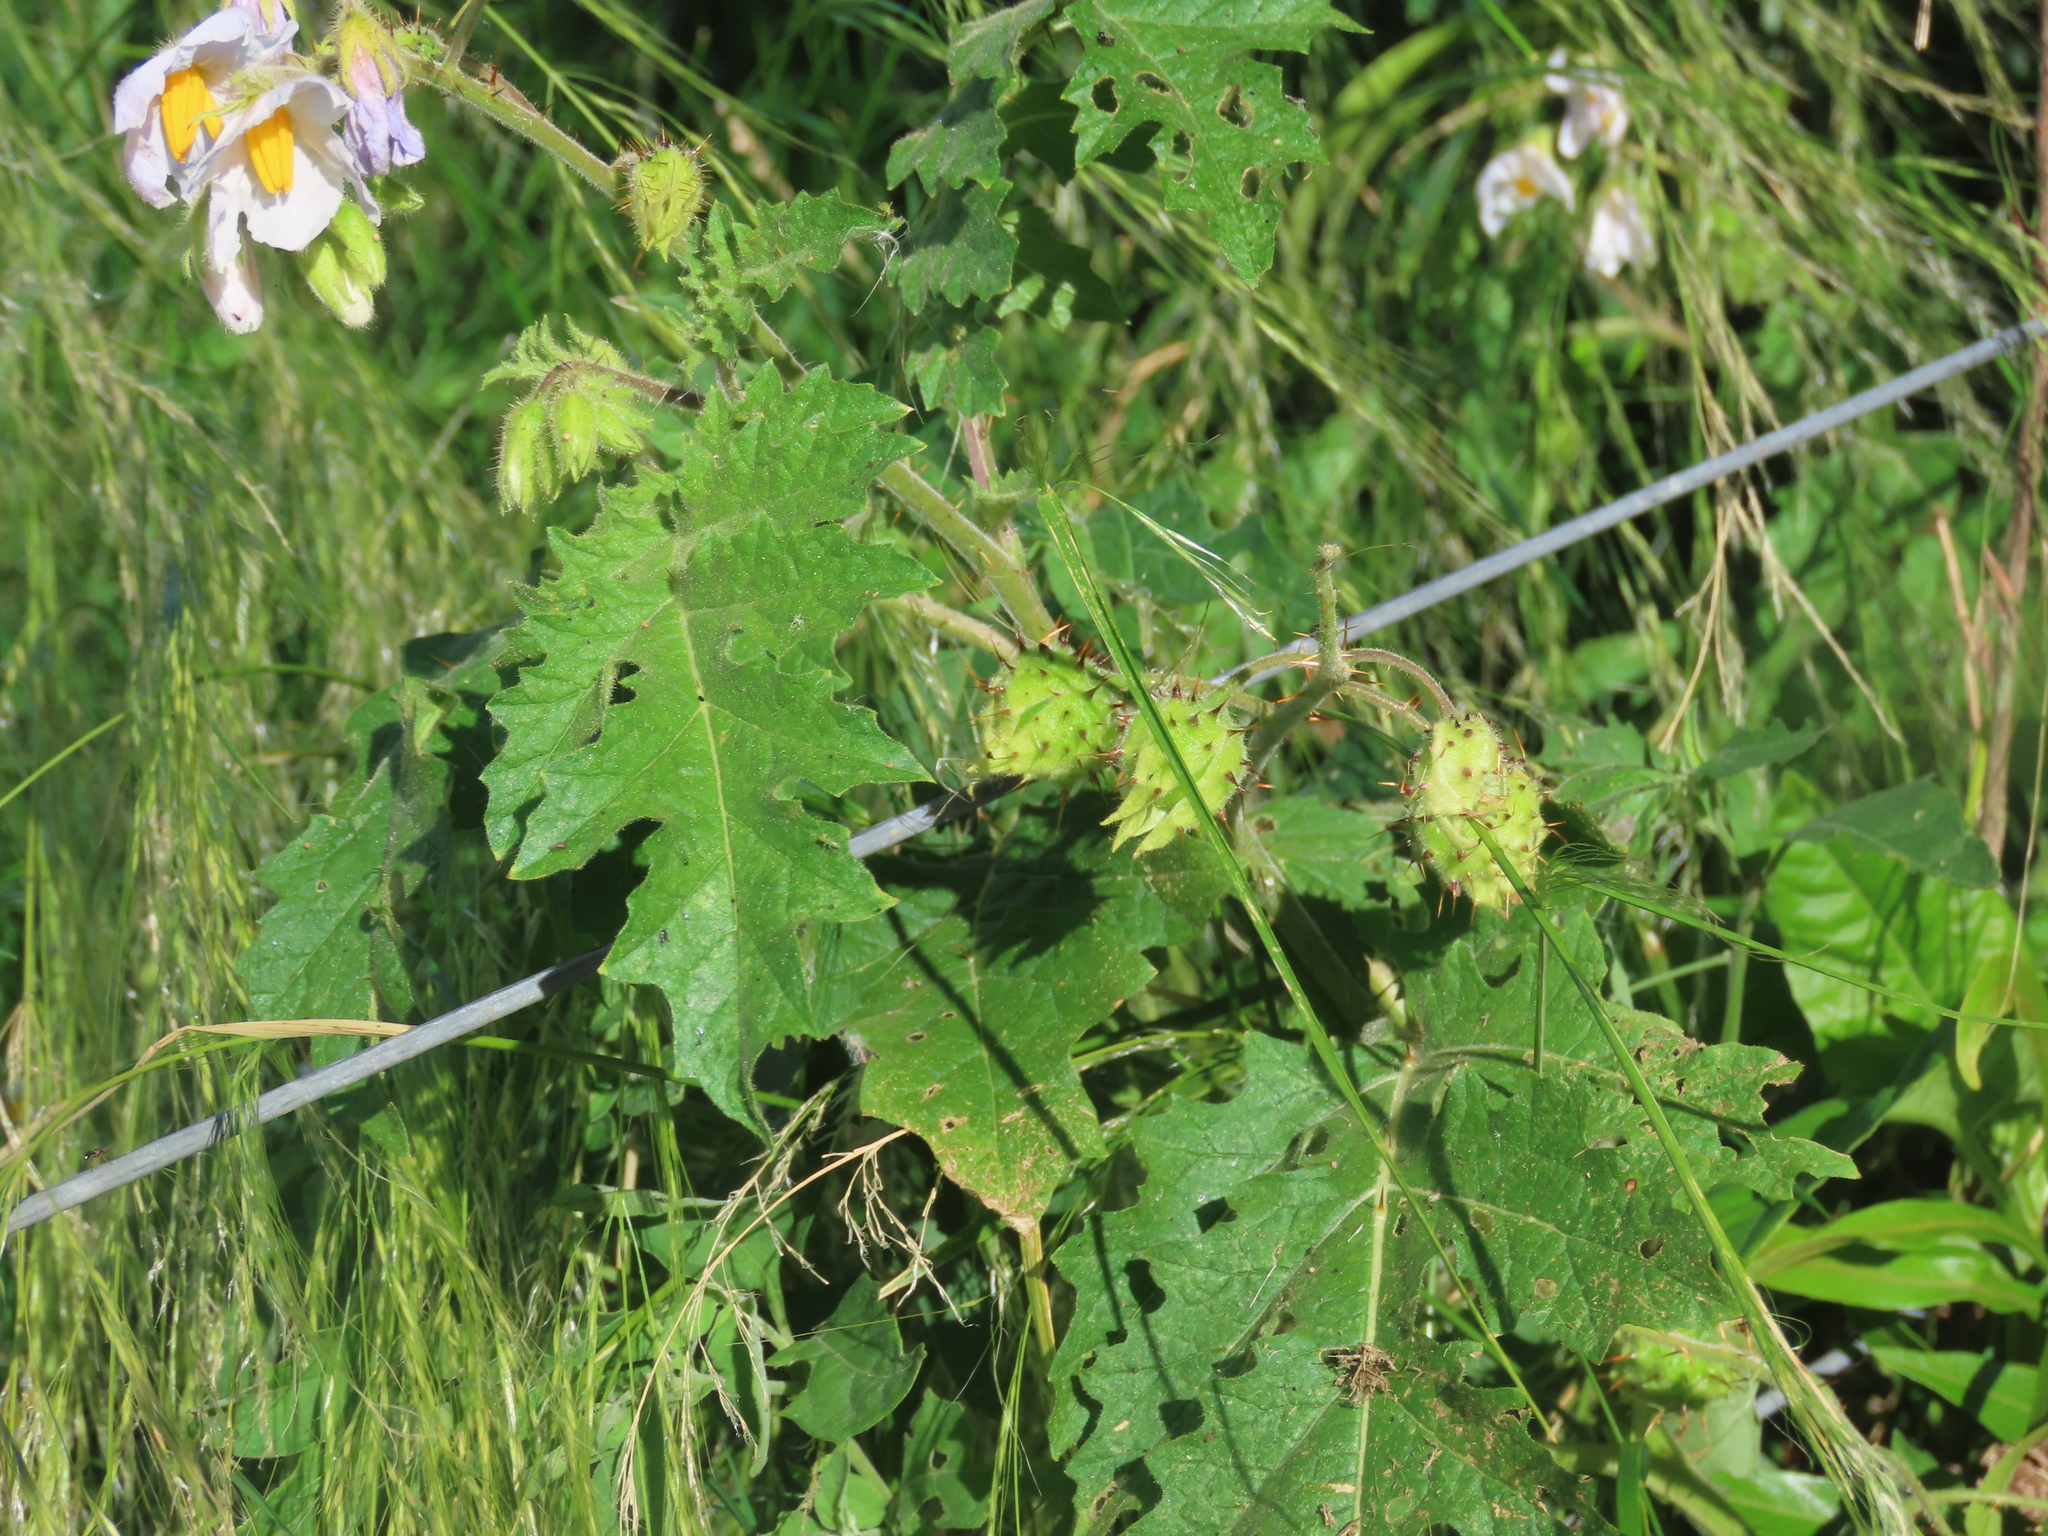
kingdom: Plantae
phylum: Tracheophyta
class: Magnoliopsida
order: Solanales
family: Solanaceae
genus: Solanum
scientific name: Solanum sisymbriifolium
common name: Red buffalo-bur
